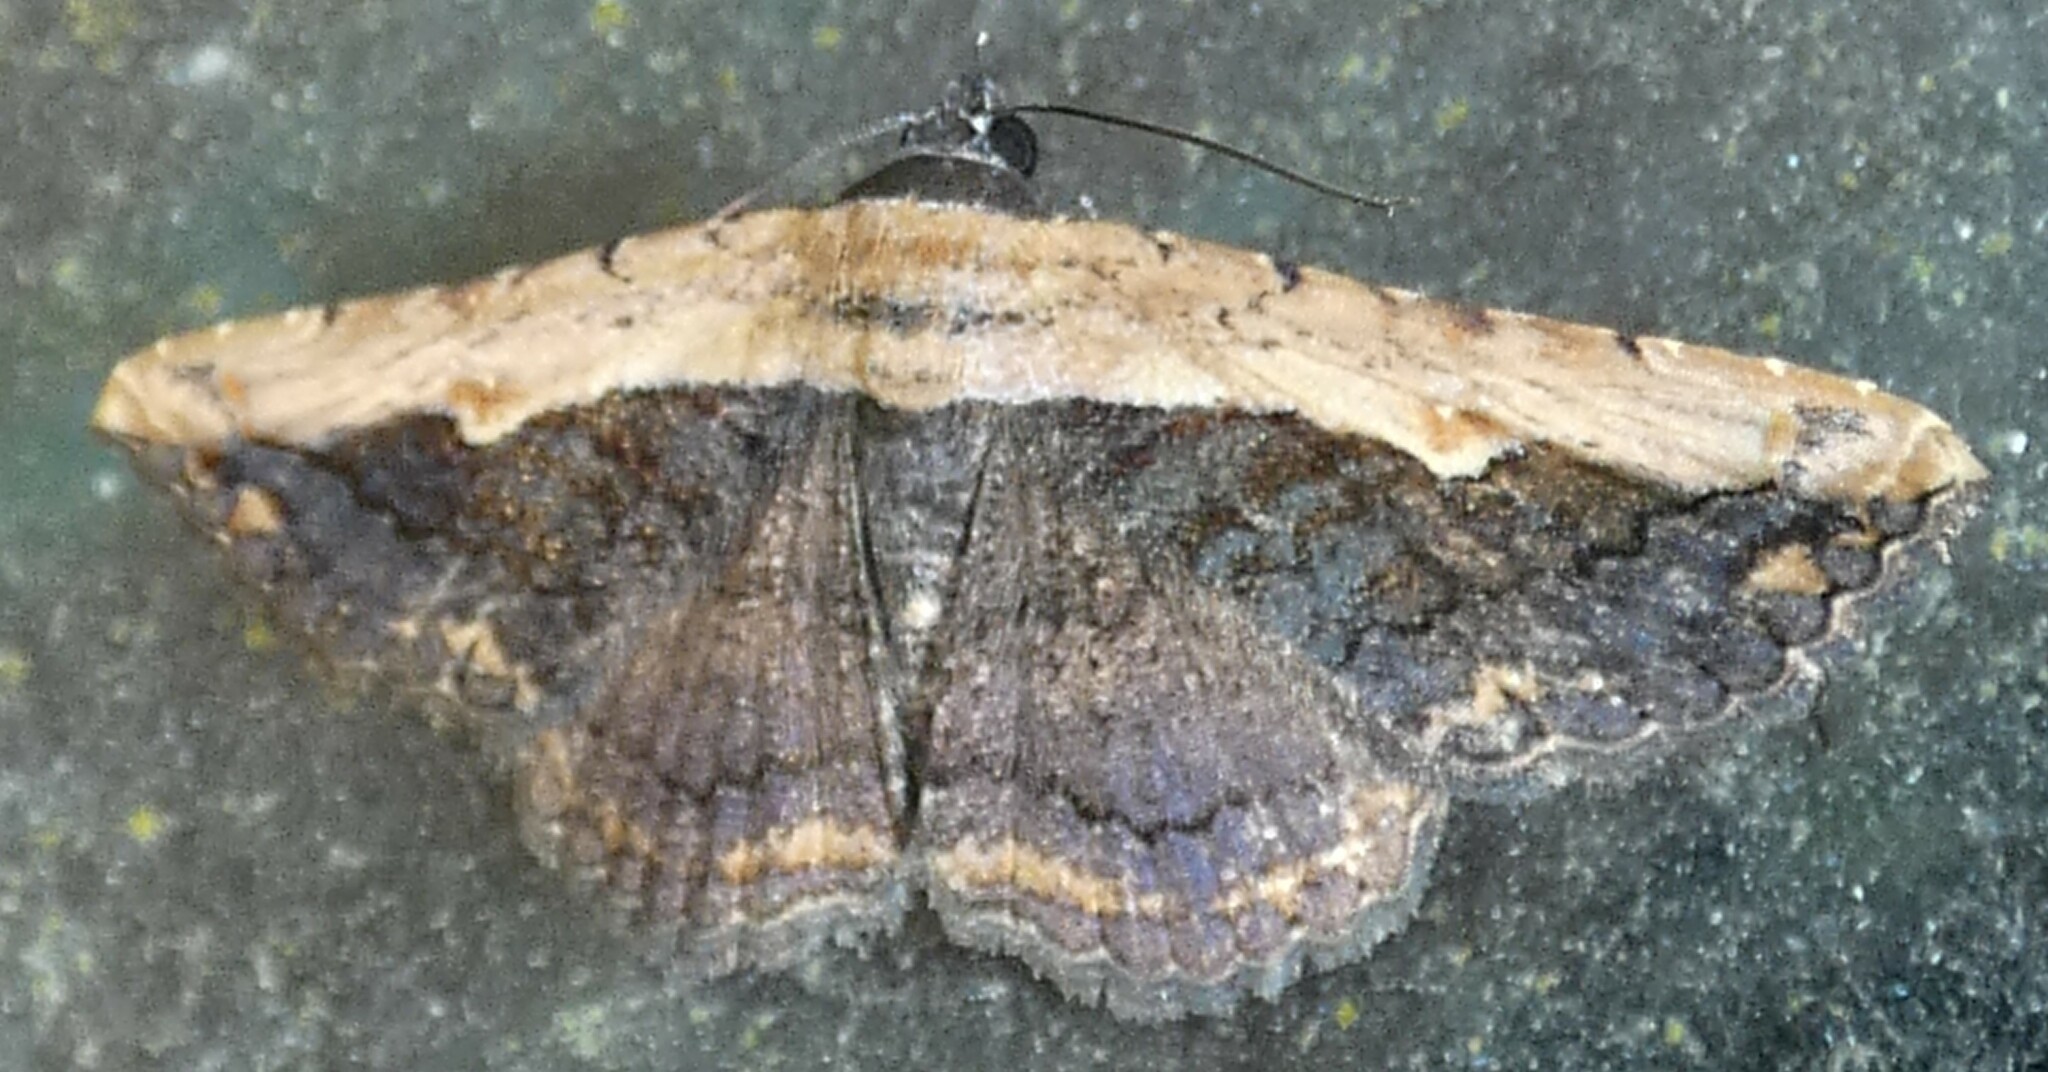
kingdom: Animalia
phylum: Arthropoda
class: Insecta
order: Lepidoptera
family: Erebidae
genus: Selenisa
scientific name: Selenisa sueroides
